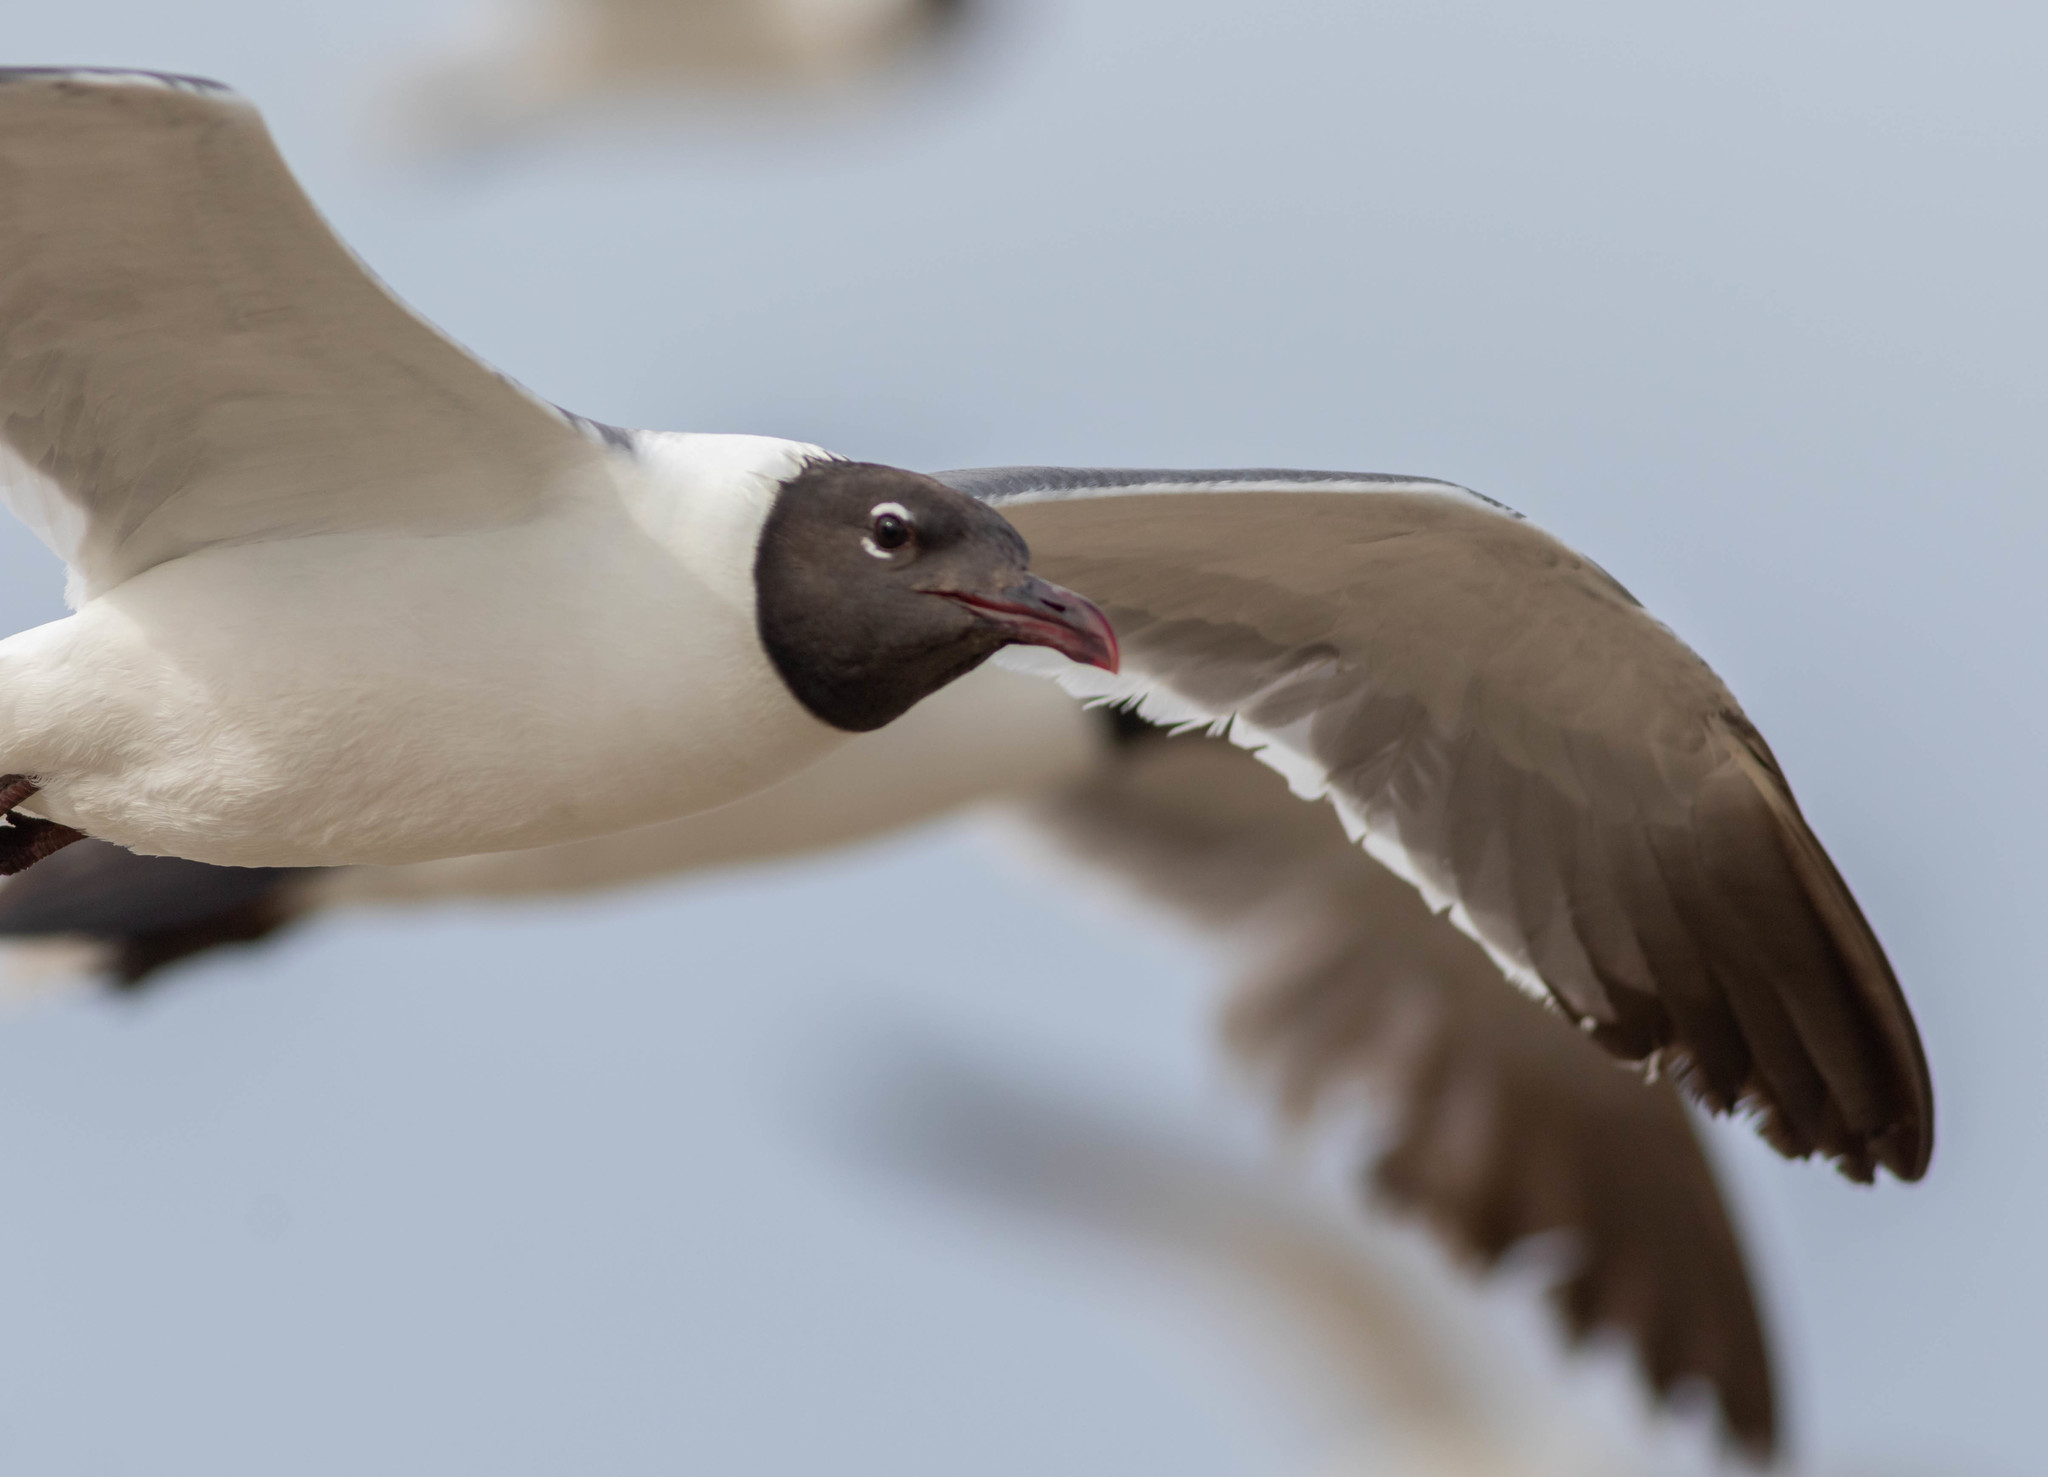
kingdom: Animalia
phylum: Chordata
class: Aves
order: Charadriiformes
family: Laridae
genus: Leucophaeus
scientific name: Leucophaeus atricilla
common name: Laughing gull
